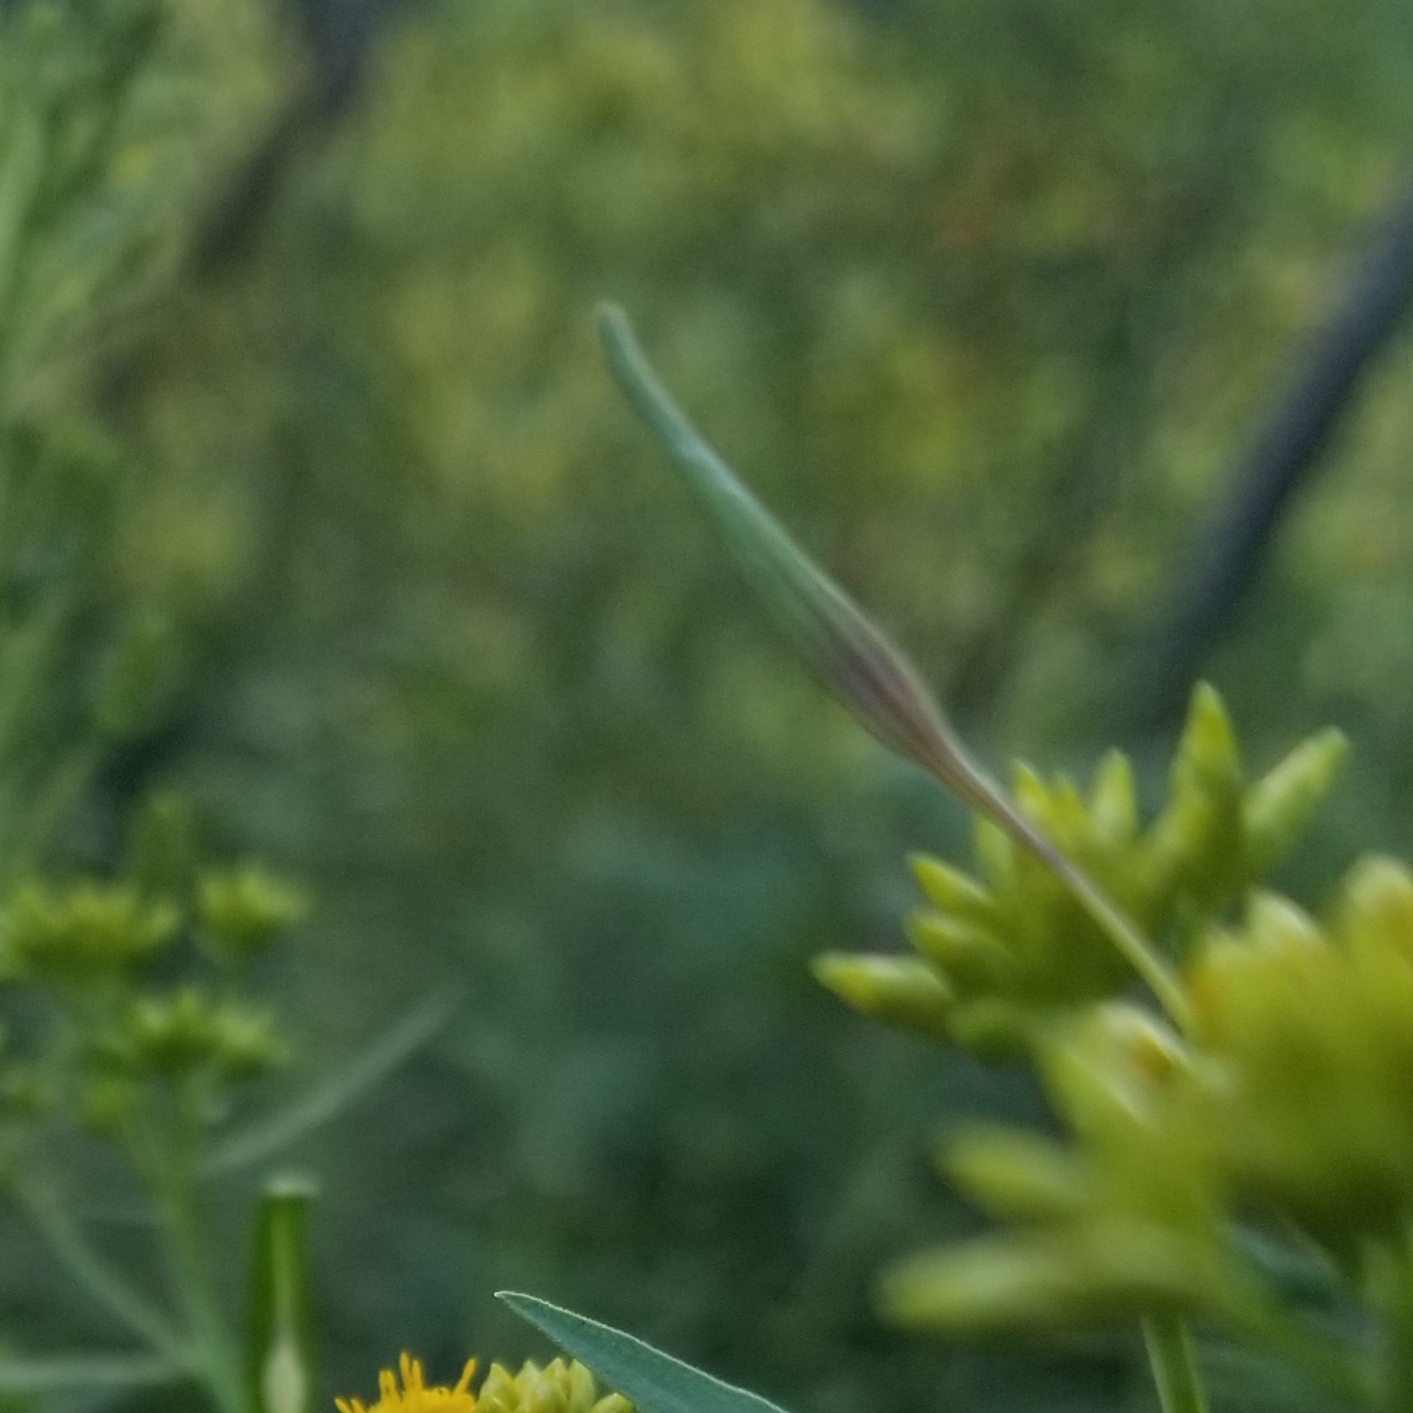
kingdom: Animalia
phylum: Arthropoda
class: Insecta
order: Diptera
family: Cecidomyiidae
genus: Rhopalomyia
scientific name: Rhopalomyia pedicellata
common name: Goldentop pedicellate gall midge
